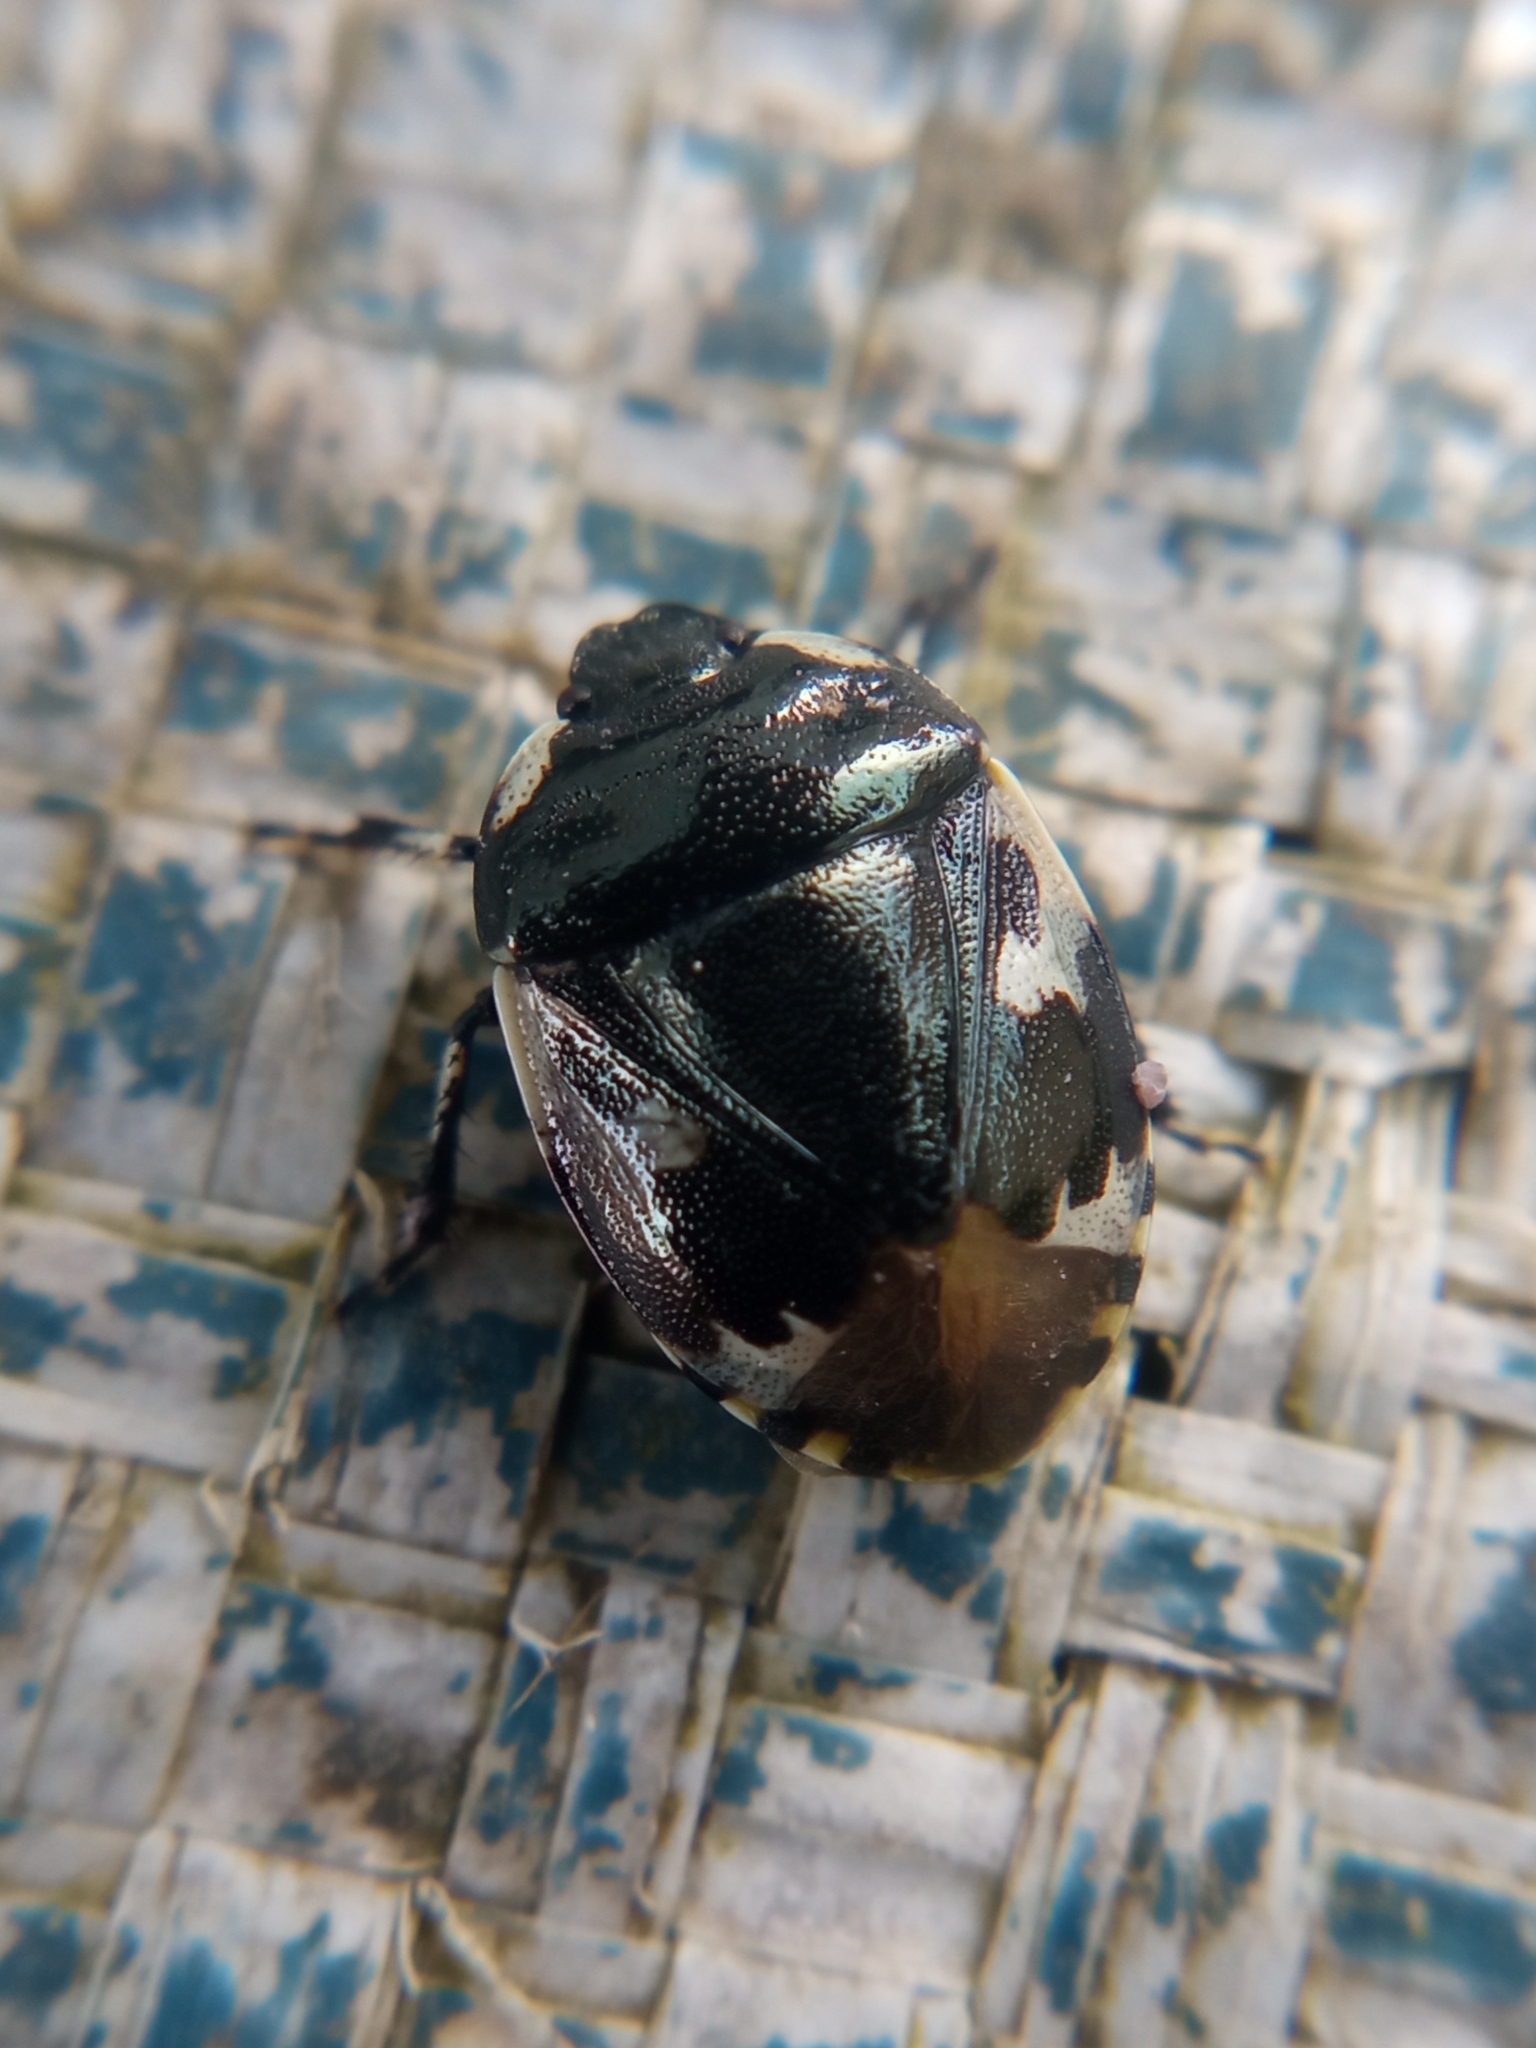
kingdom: Animalia
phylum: Arthropoda
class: Insecta
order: Hemiptera
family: Cydnidae
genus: Tritomegas
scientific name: Tritomegas bicolor
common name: Pied shieldbug
